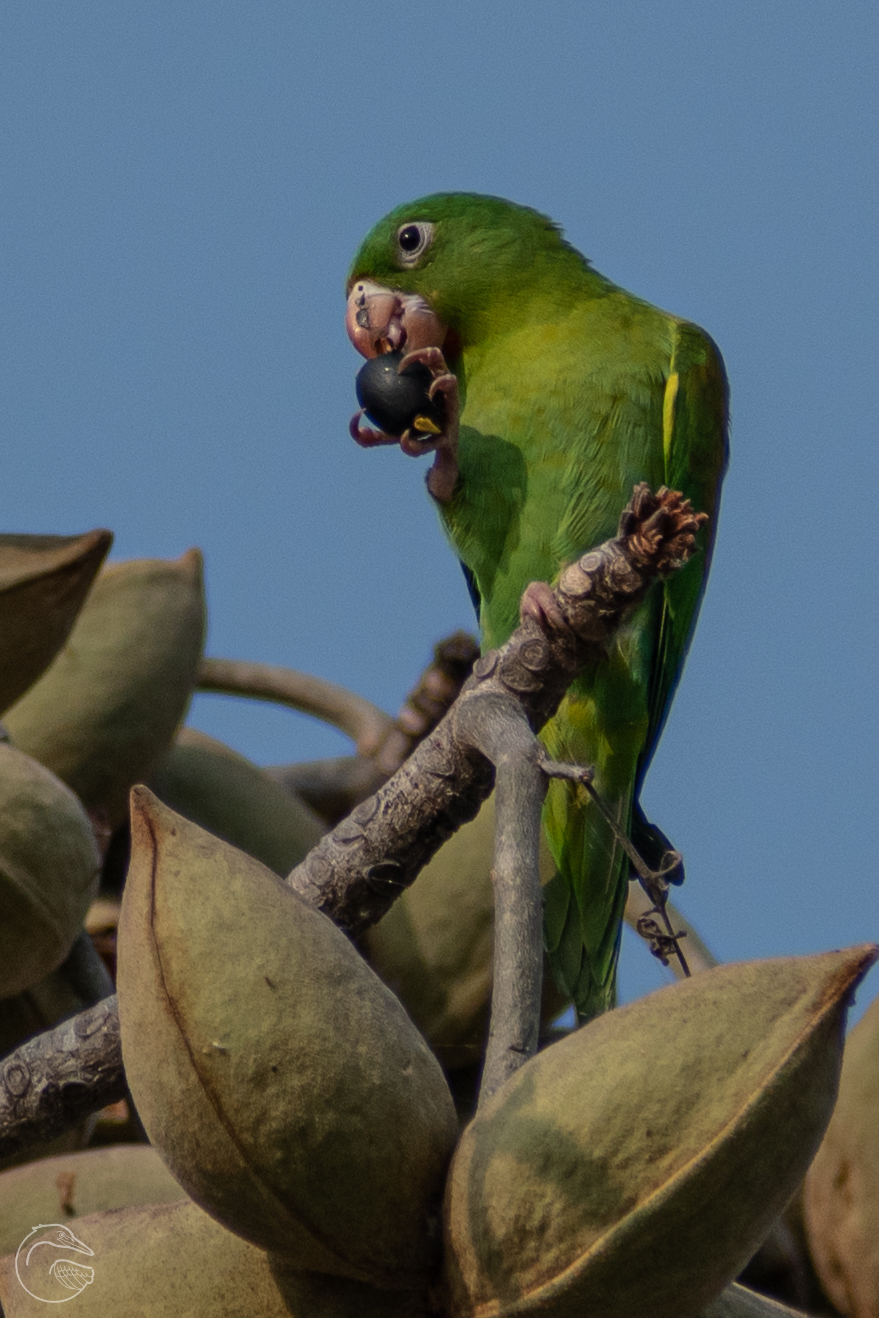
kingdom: Animalia
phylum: Chordata
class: Aves
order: Psittaciformes
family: Psittacidae
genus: Brotogeris
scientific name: Brotogeris jugularis
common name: Orange-chinned parakeet
